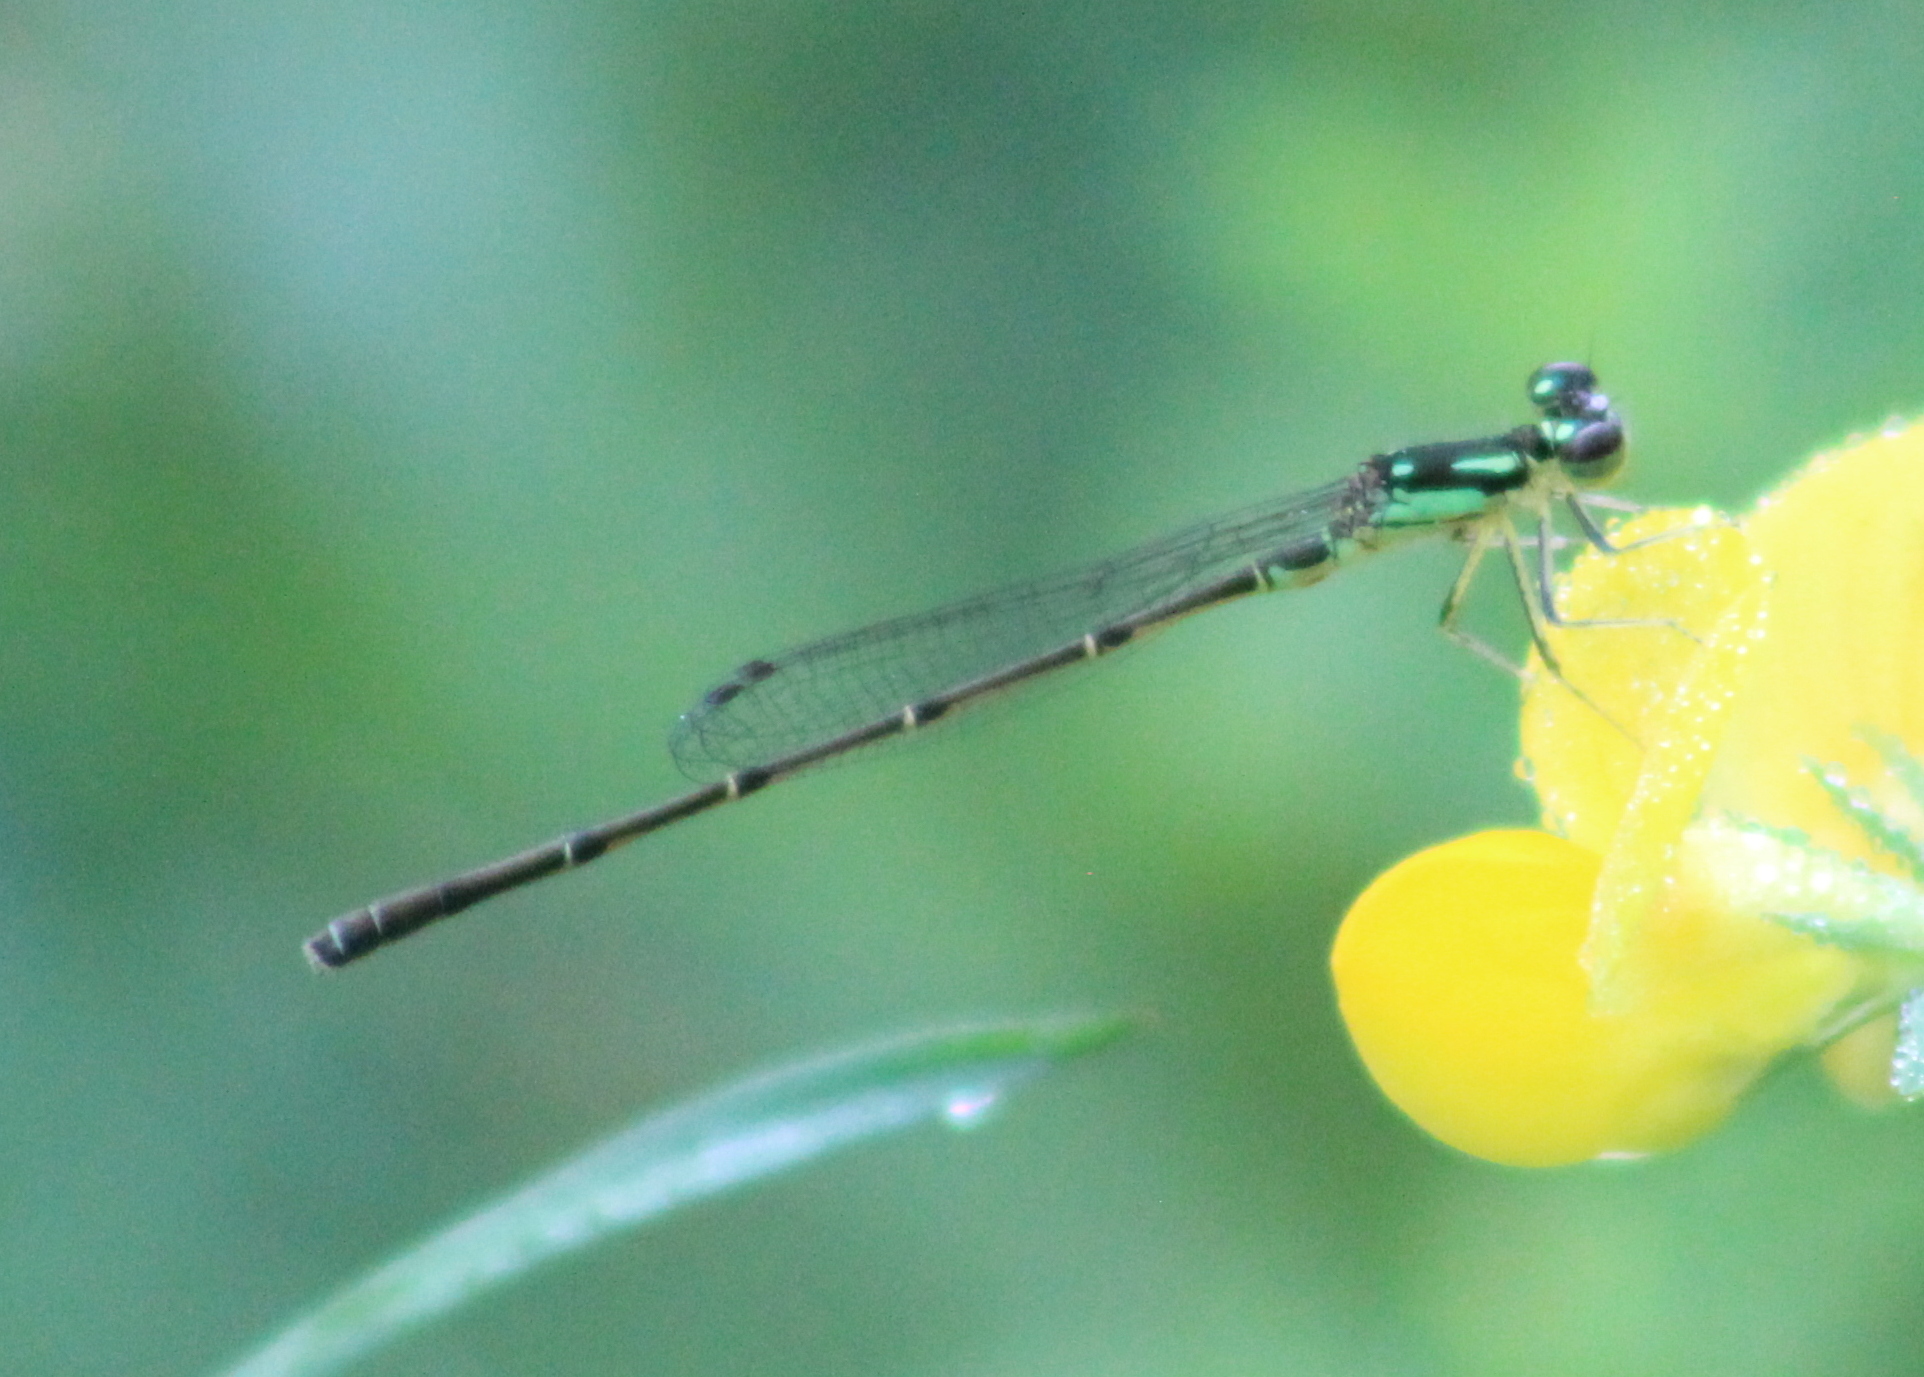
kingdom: Animalia
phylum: Arthropoda
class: Insecta
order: Odonata
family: Coenagrionidae
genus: Ischnura
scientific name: Ischnura posita
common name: Fragile forktail
